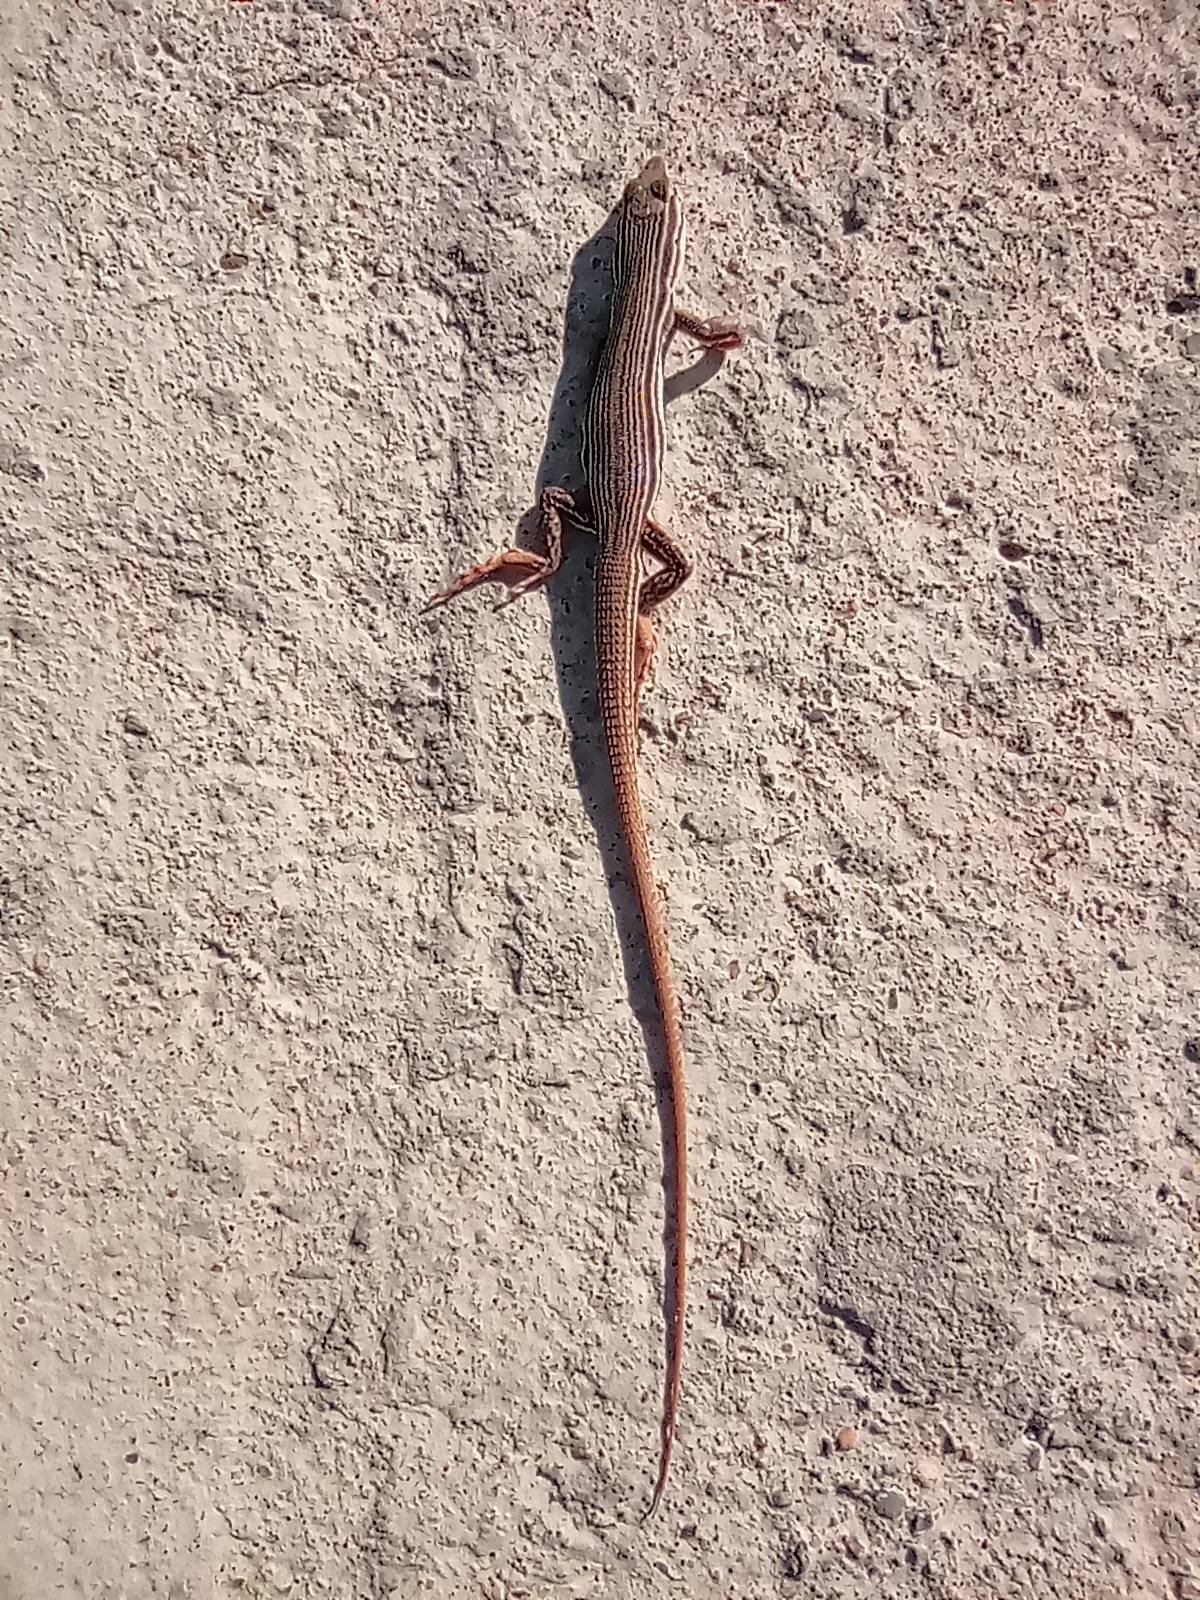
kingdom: Animalia
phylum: Chordata
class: Squamata
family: Teiidae
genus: Aurivela
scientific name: Aurivela longicauda
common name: Longtail whiptail
